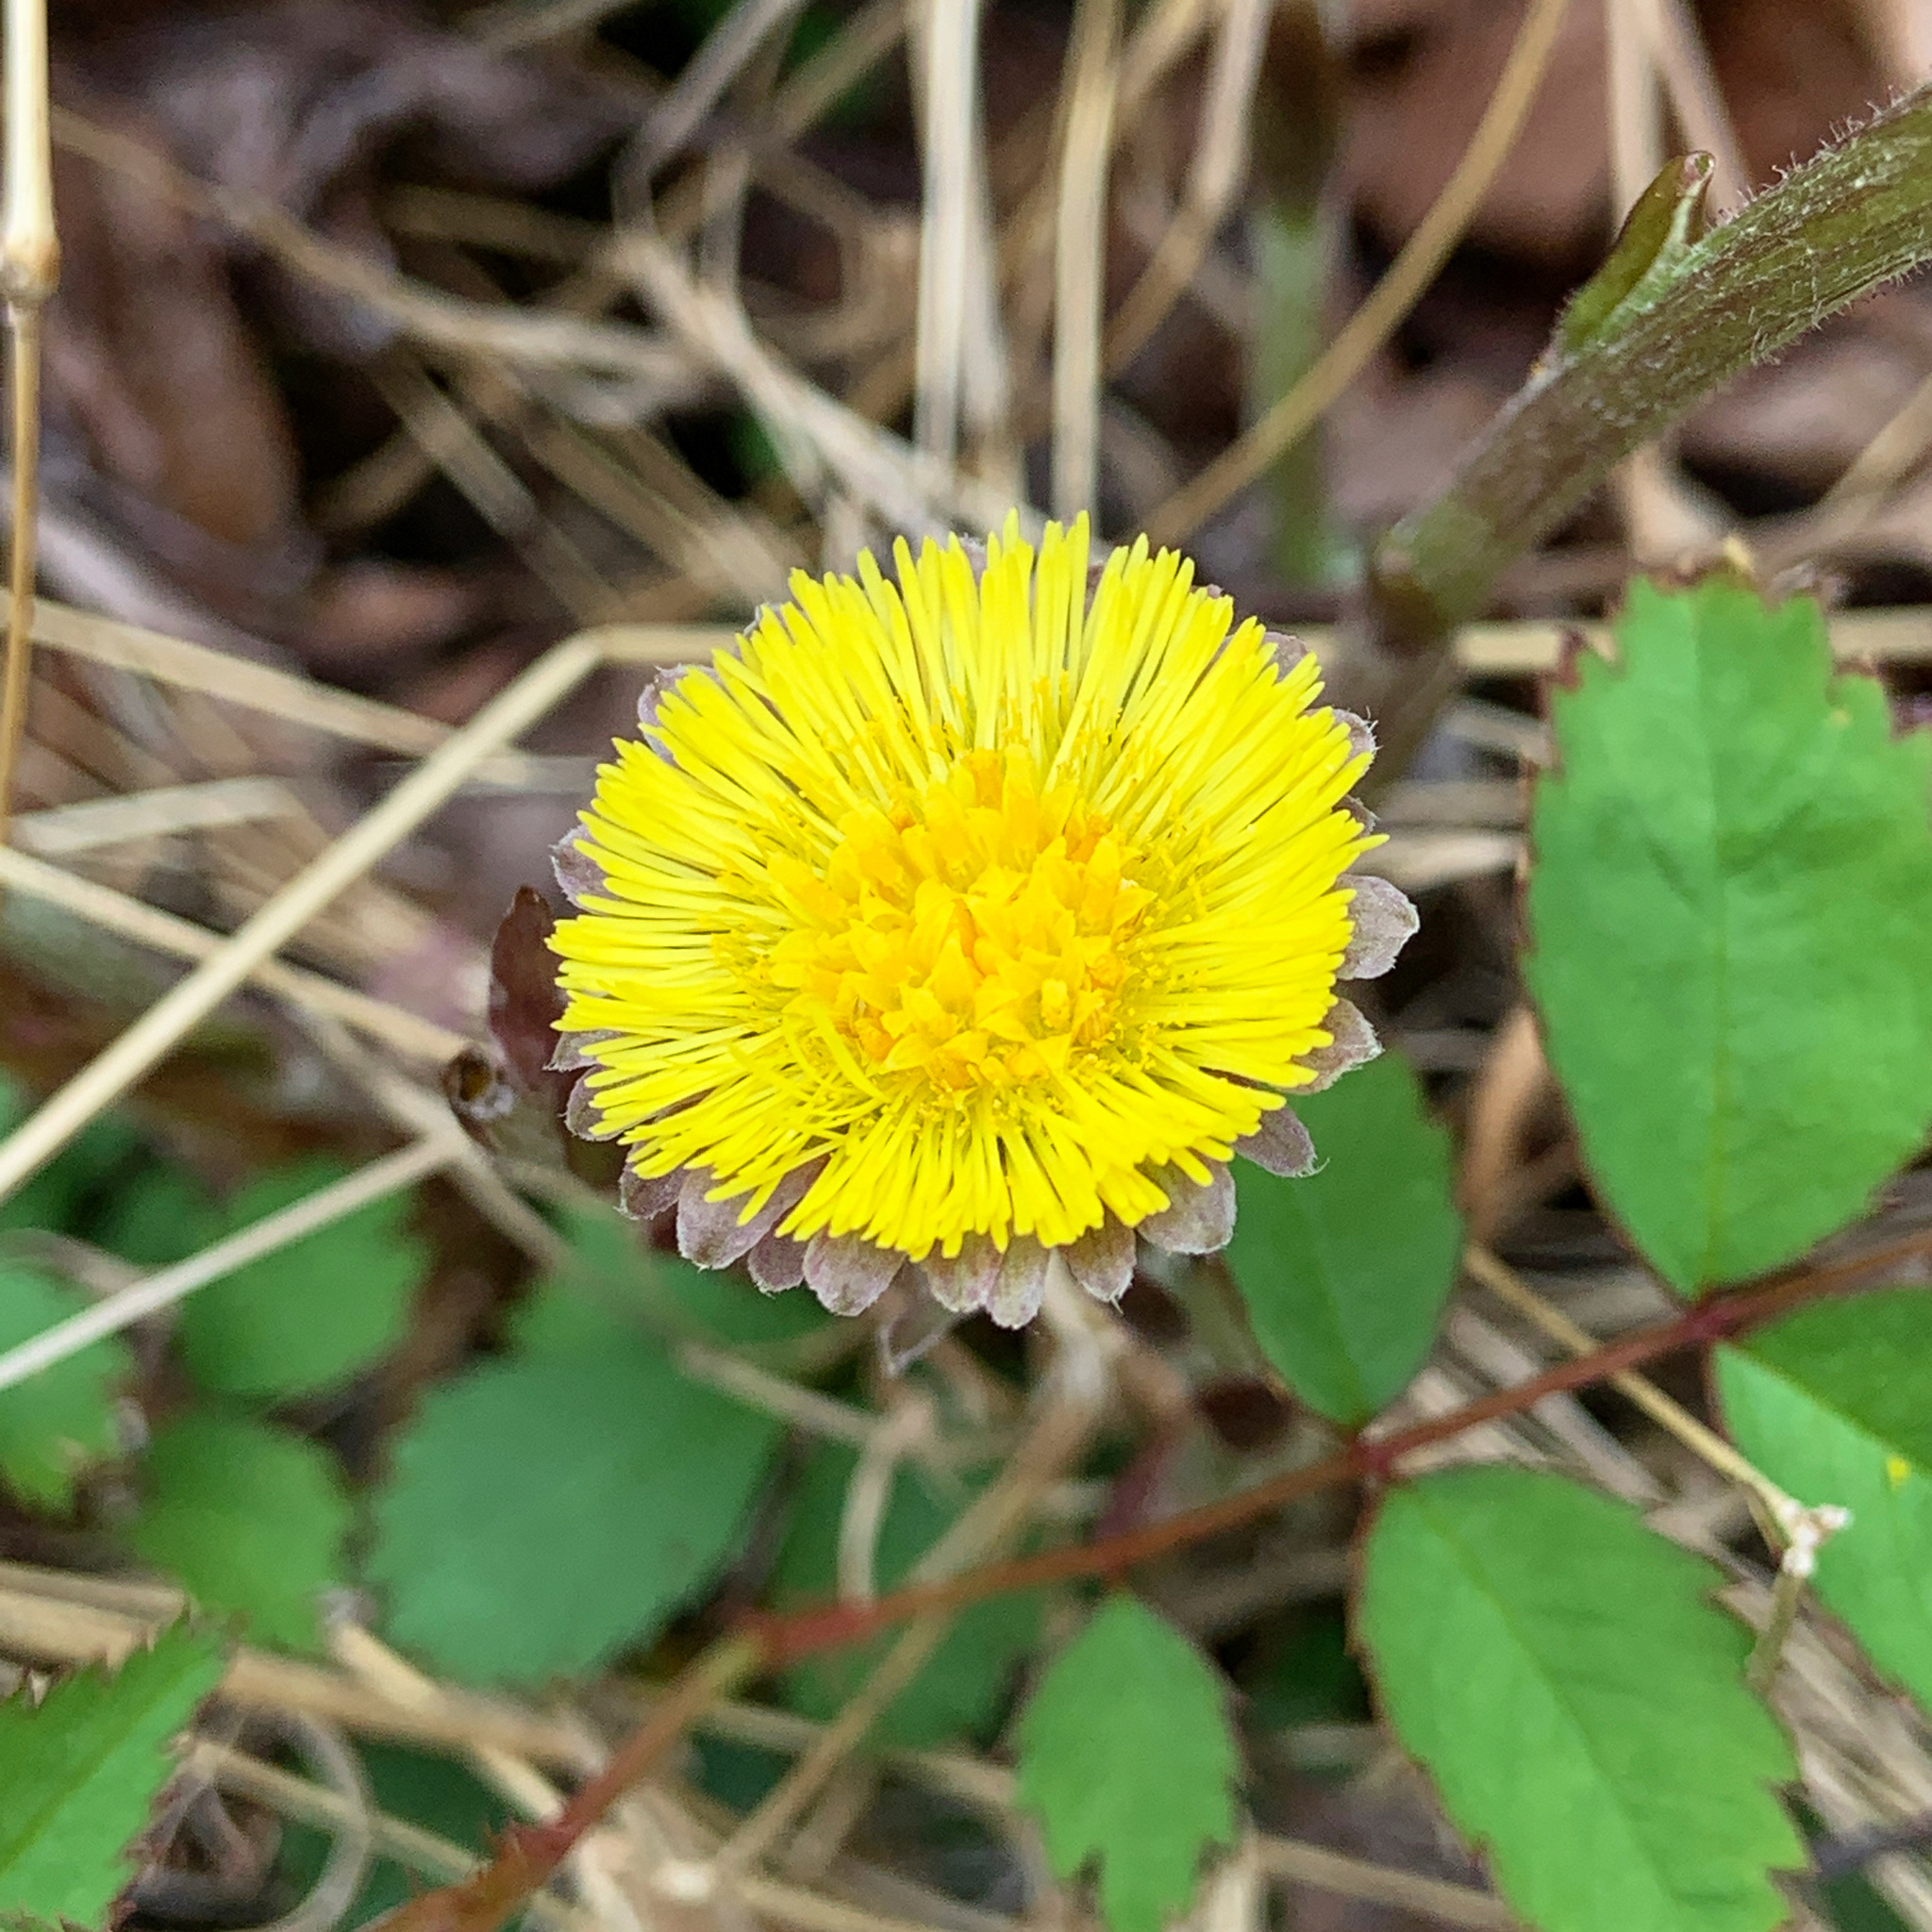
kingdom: Plantae
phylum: Tracheophyta
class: Magnoliopsida
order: Asterales
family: Asteraceae
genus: Tussilago
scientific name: Tussilago farfara
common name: Coltsfoot
